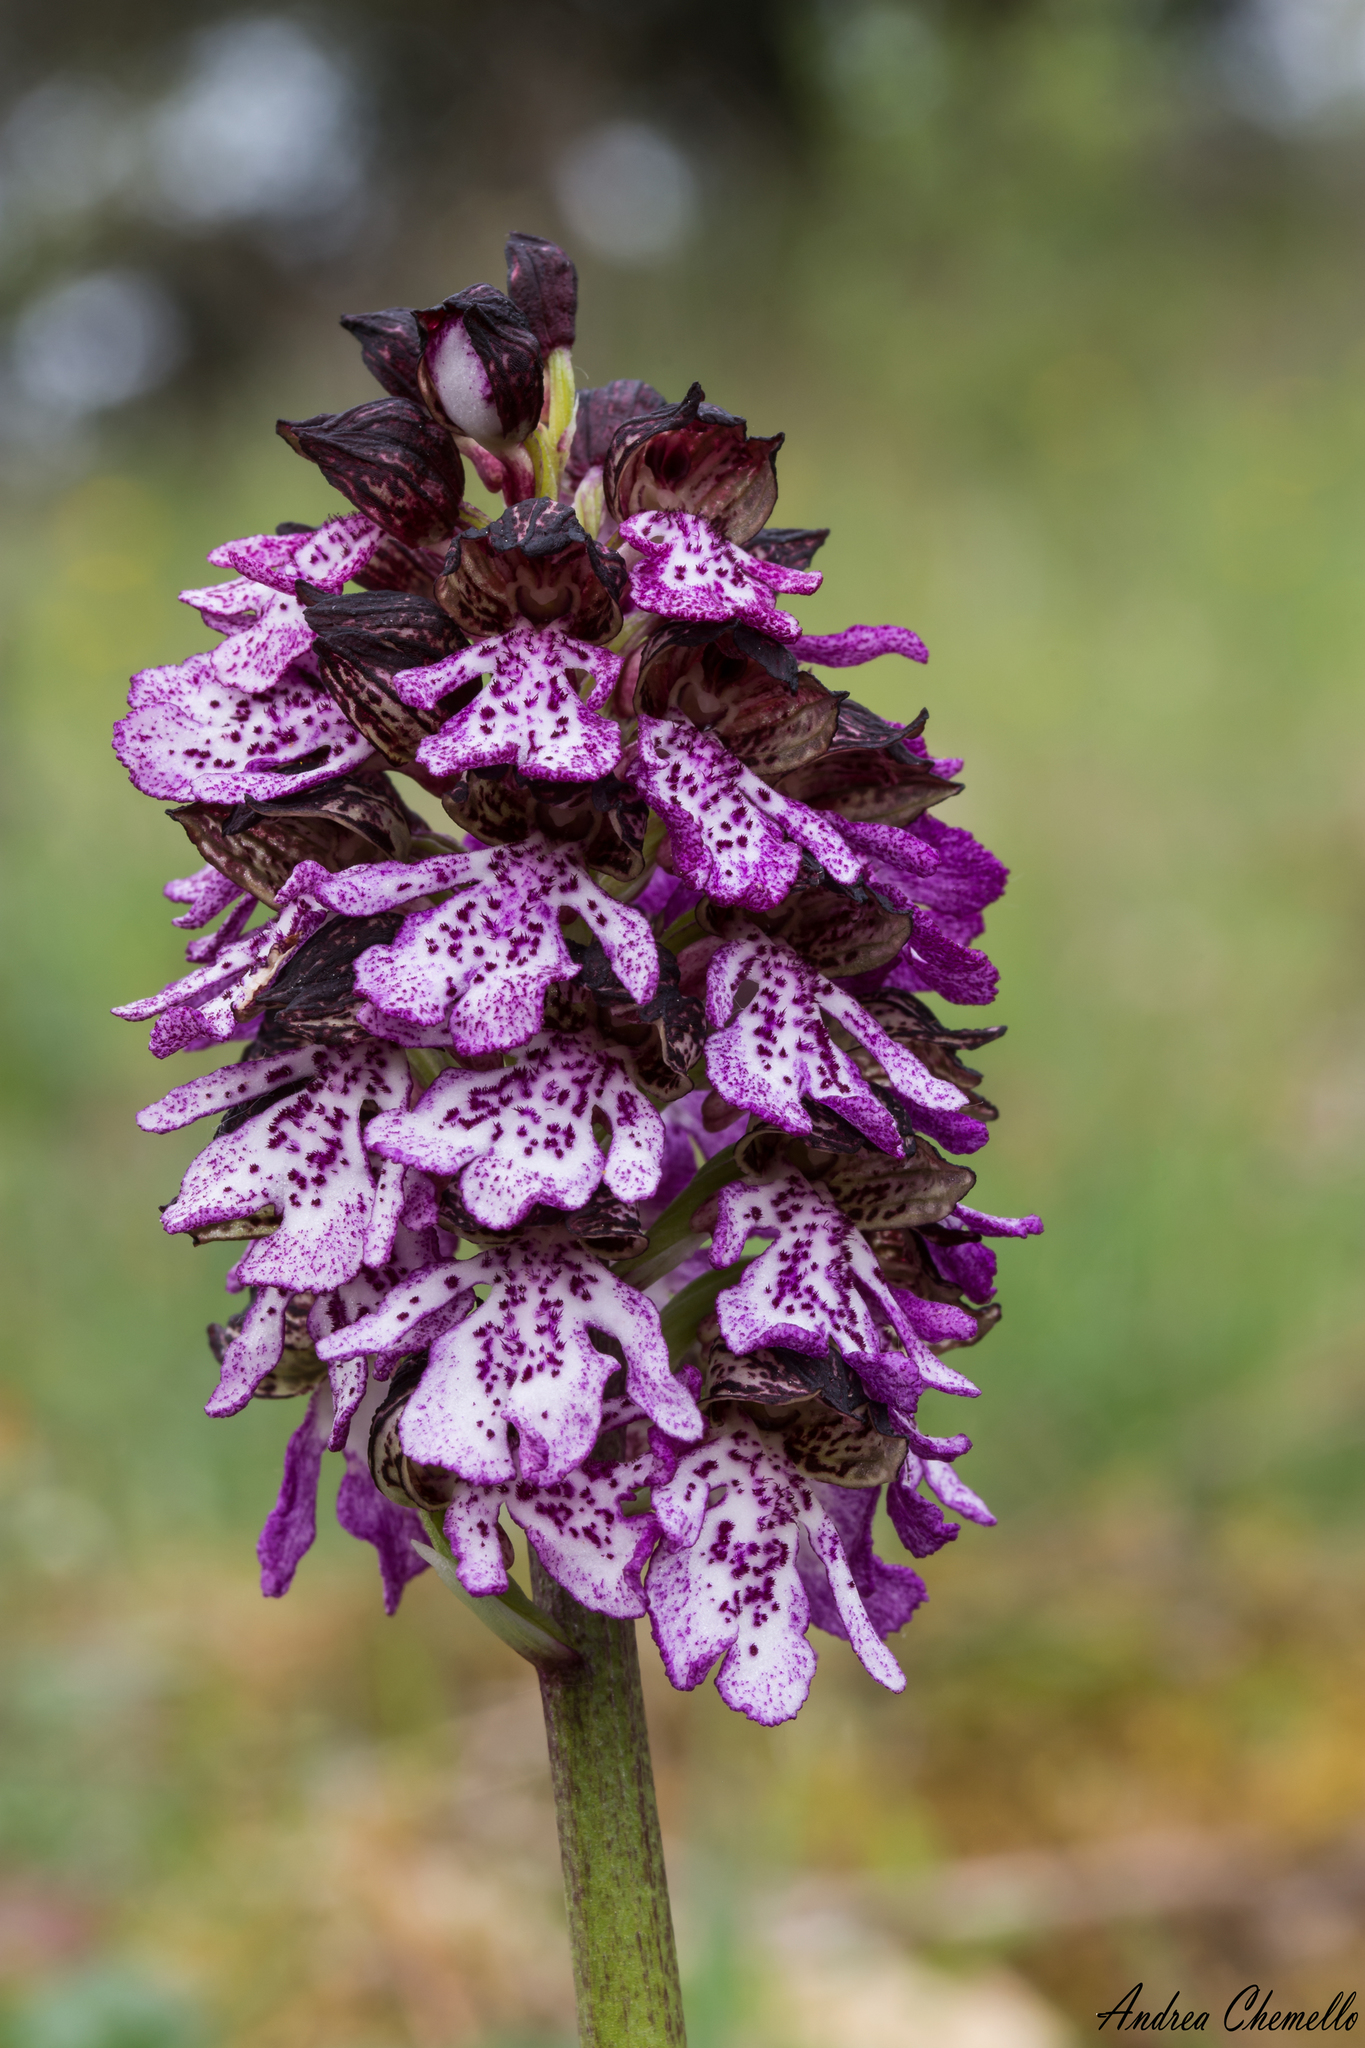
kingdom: Plantae
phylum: Tracheophyta
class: Liliopsida
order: Asparagales
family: Orchidaceae
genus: Orchis
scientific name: Orchis purpurea
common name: Lady orchid
